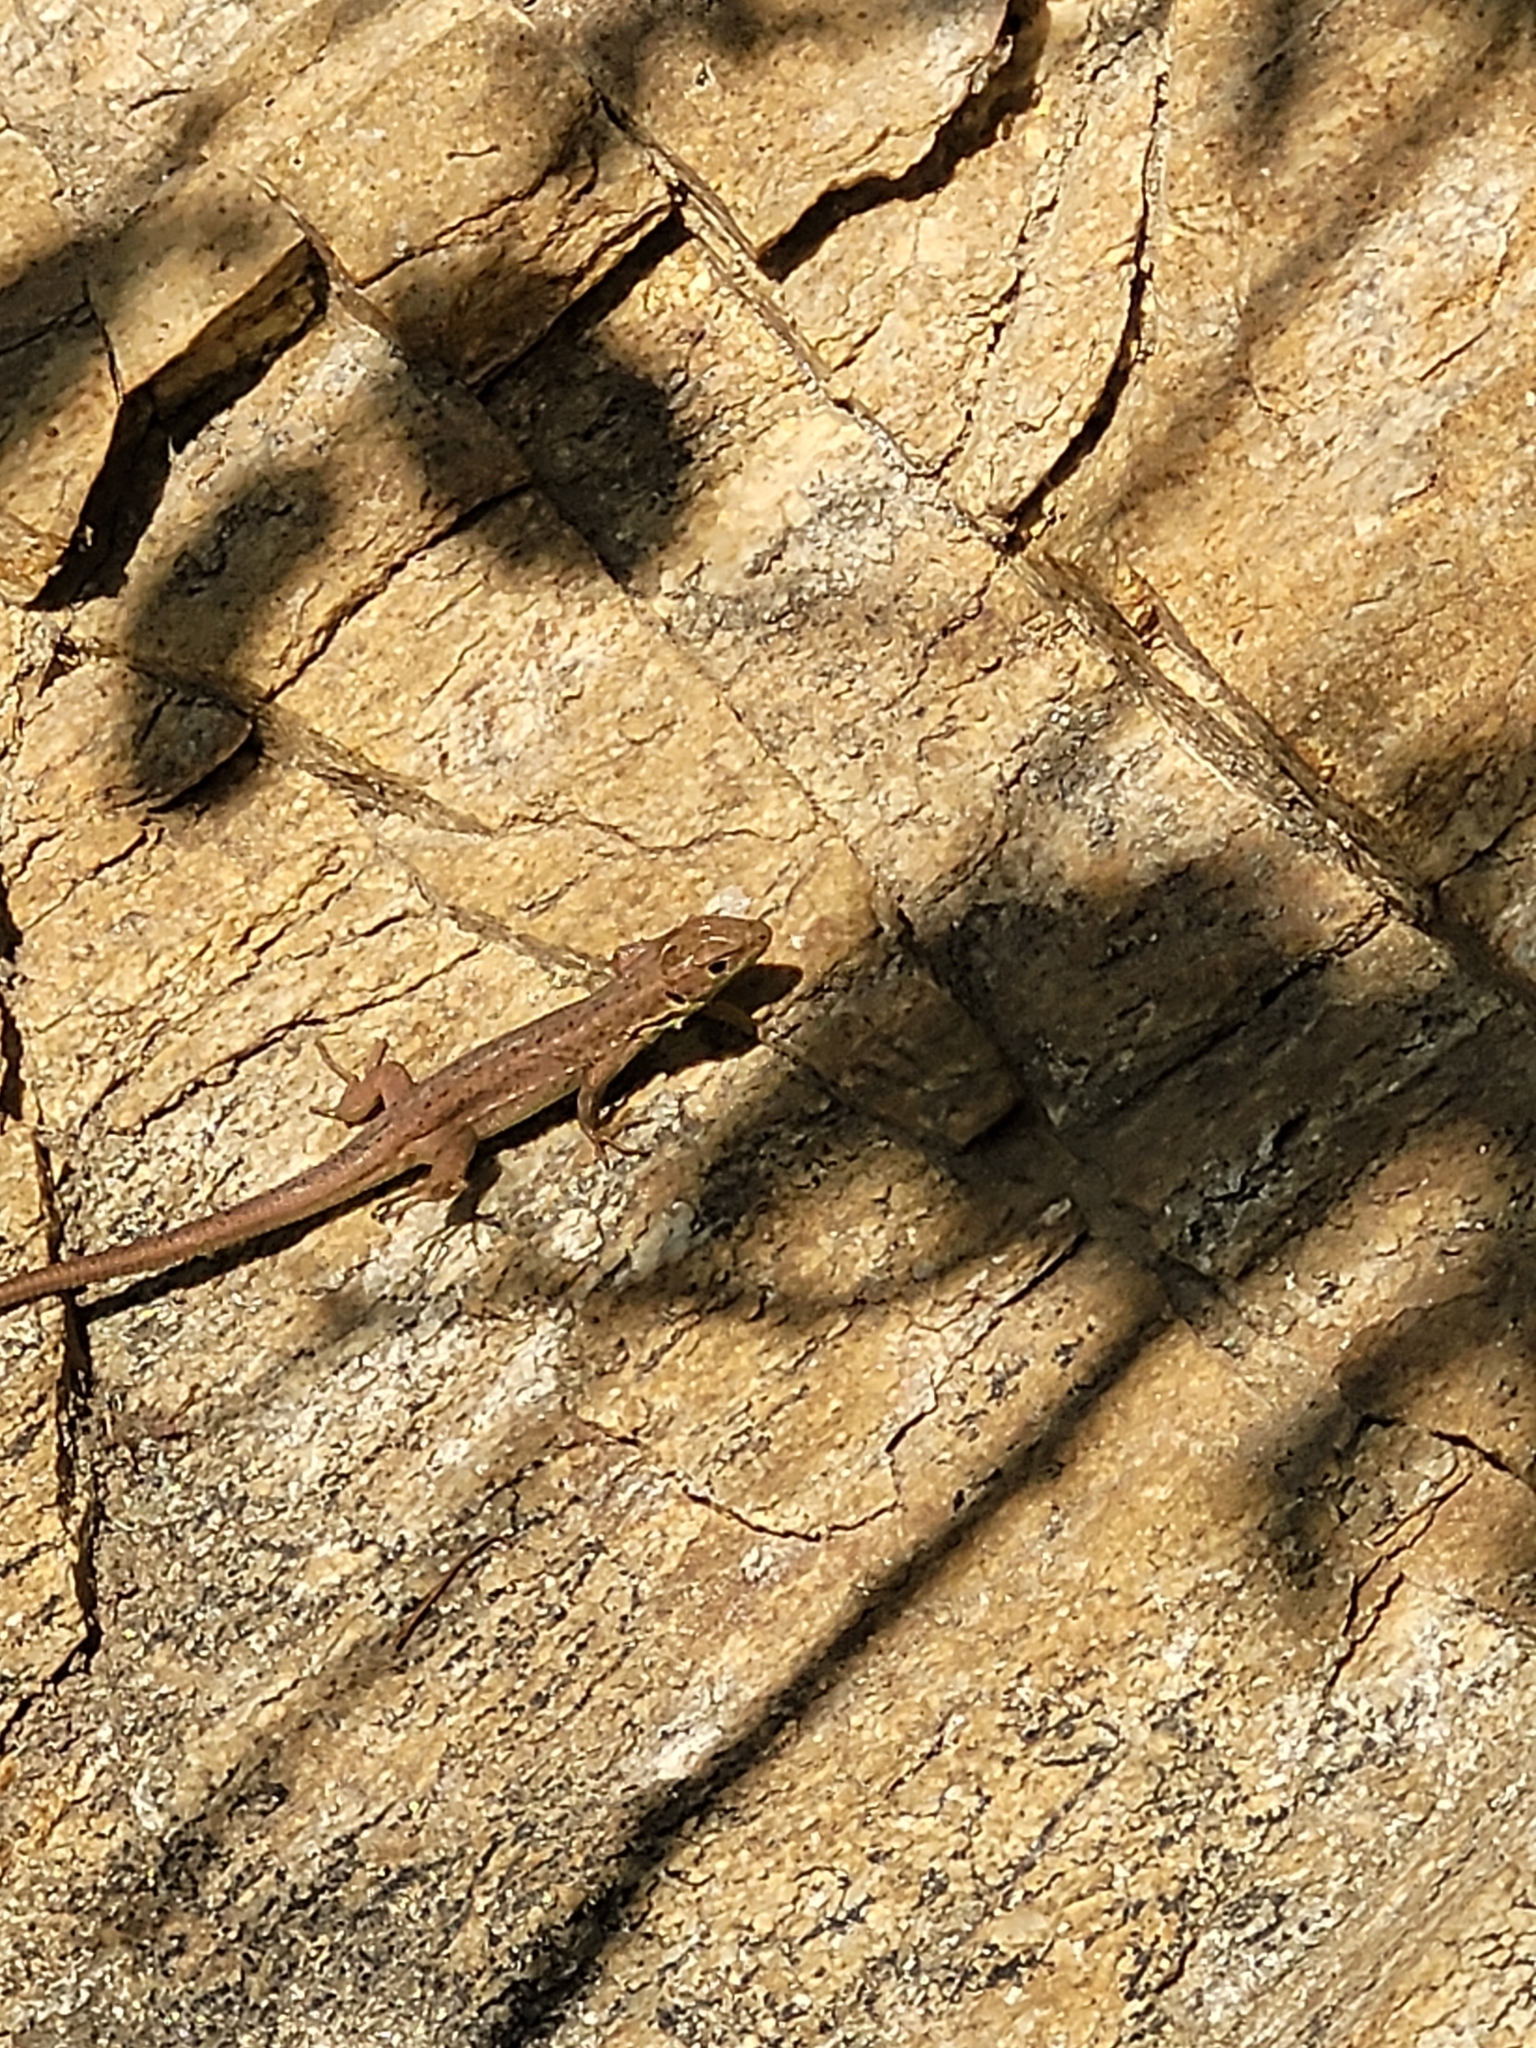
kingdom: Animalia
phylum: Chordata
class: Squamata
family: Lacertidae
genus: Lacerta
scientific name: Lacerta viridis
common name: European green lizard
